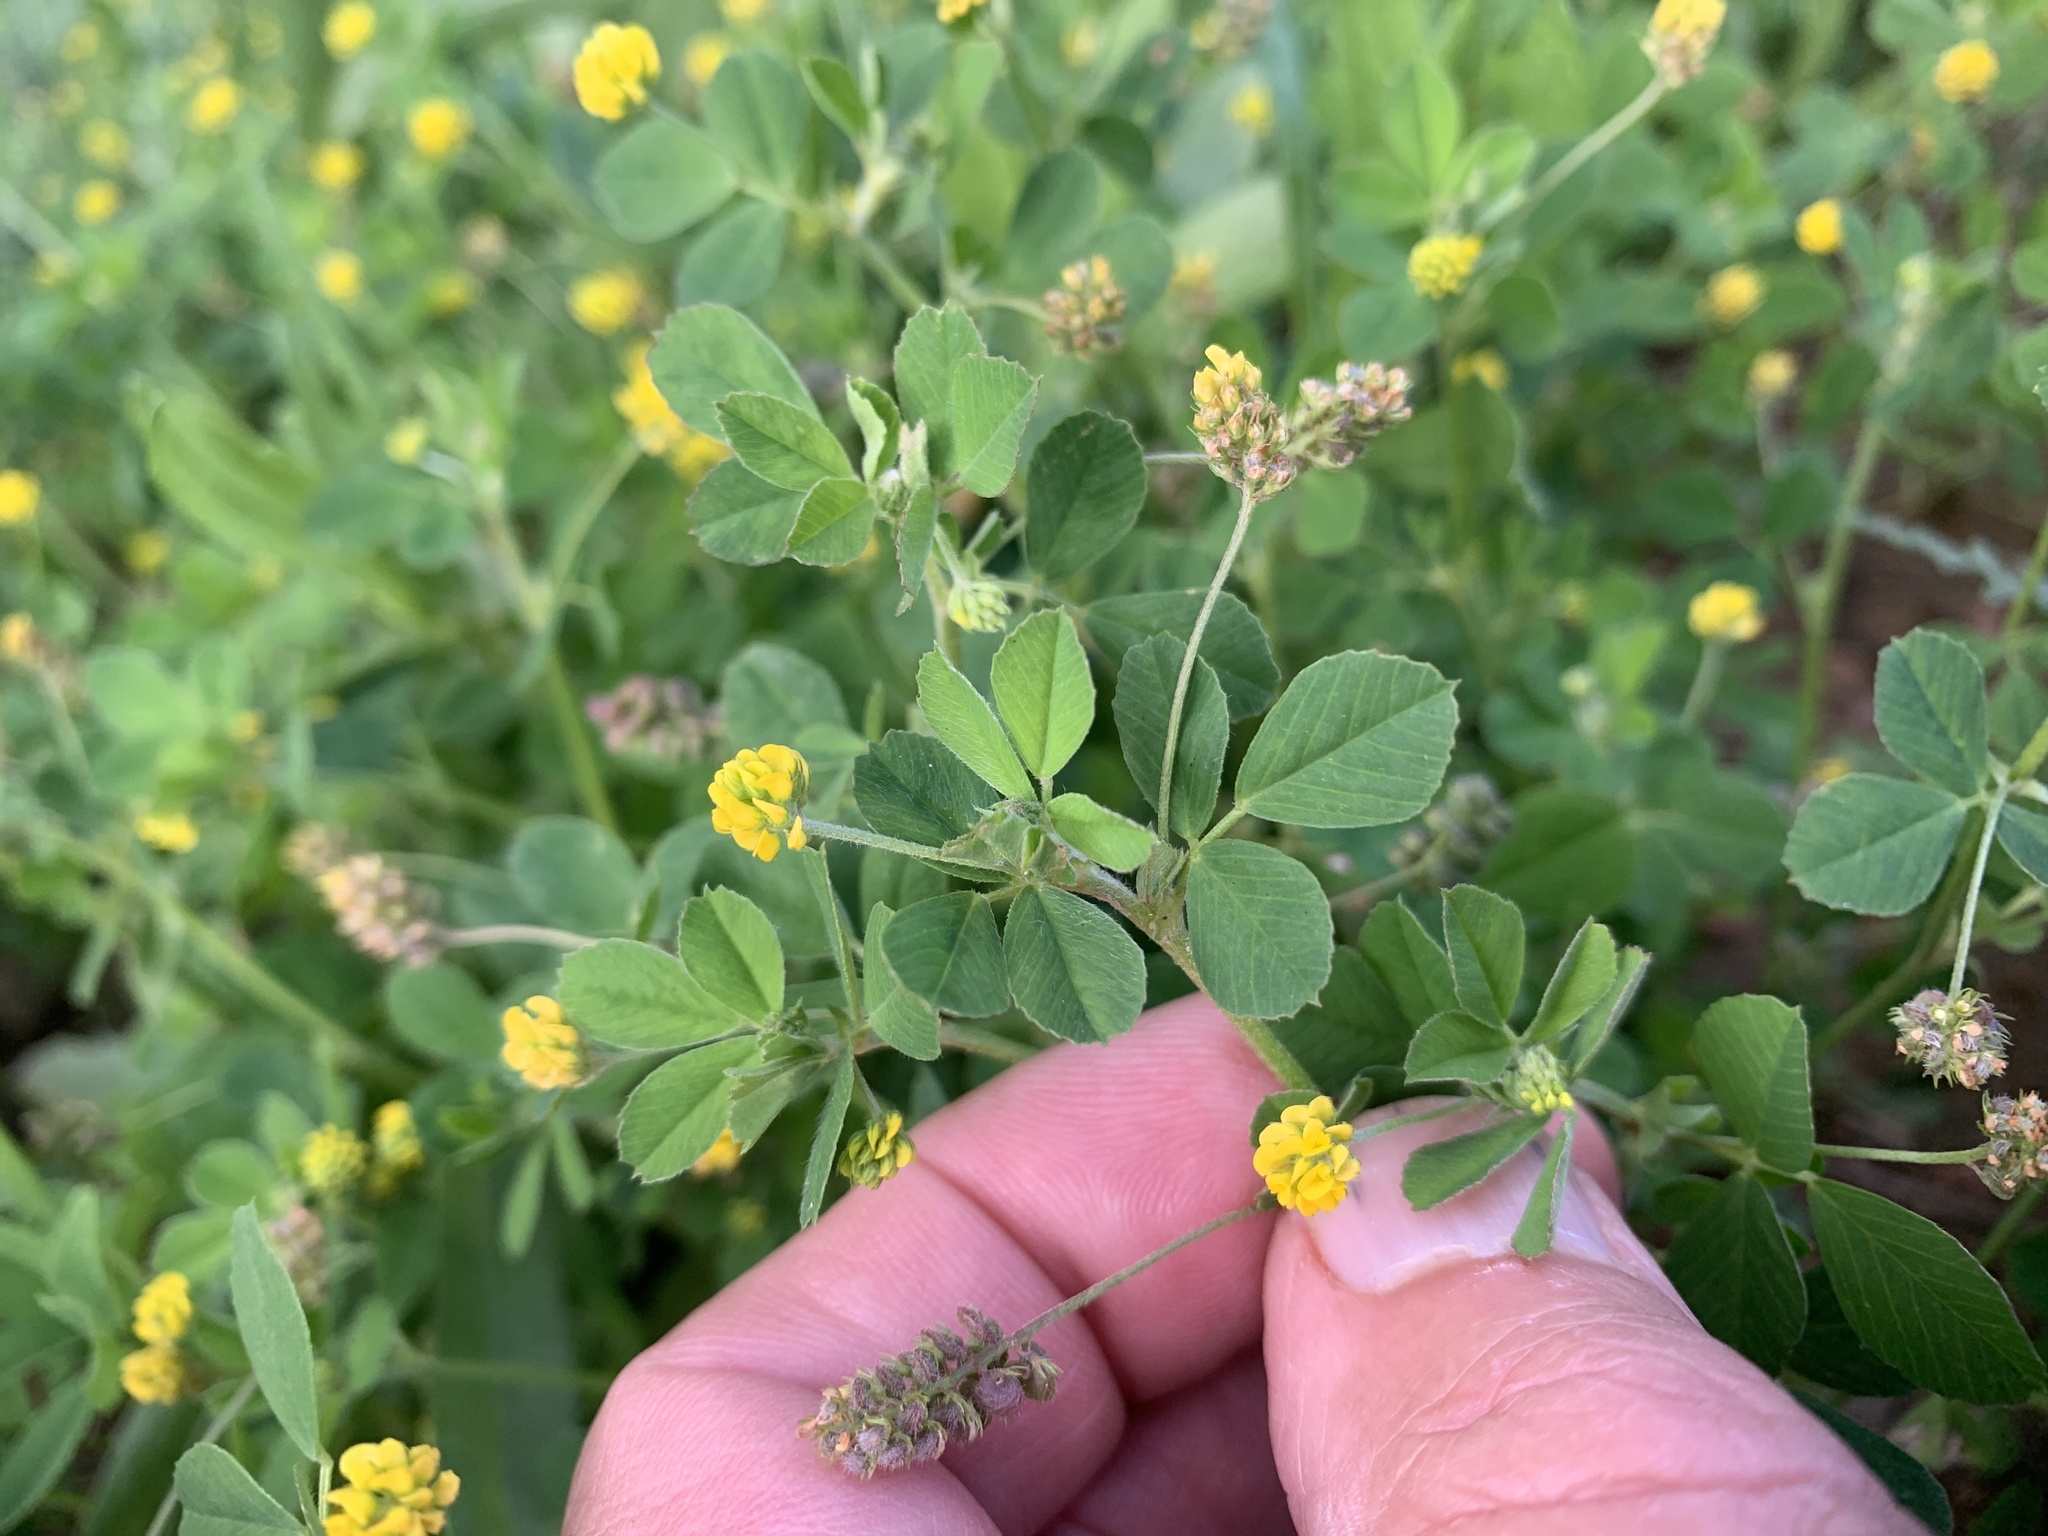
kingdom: Plantae
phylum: Tracheophyta
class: Magnoliopsida
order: Fabales
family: Fabaceae
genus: Medicago
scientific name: Medicago lupulina
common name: Black medick
